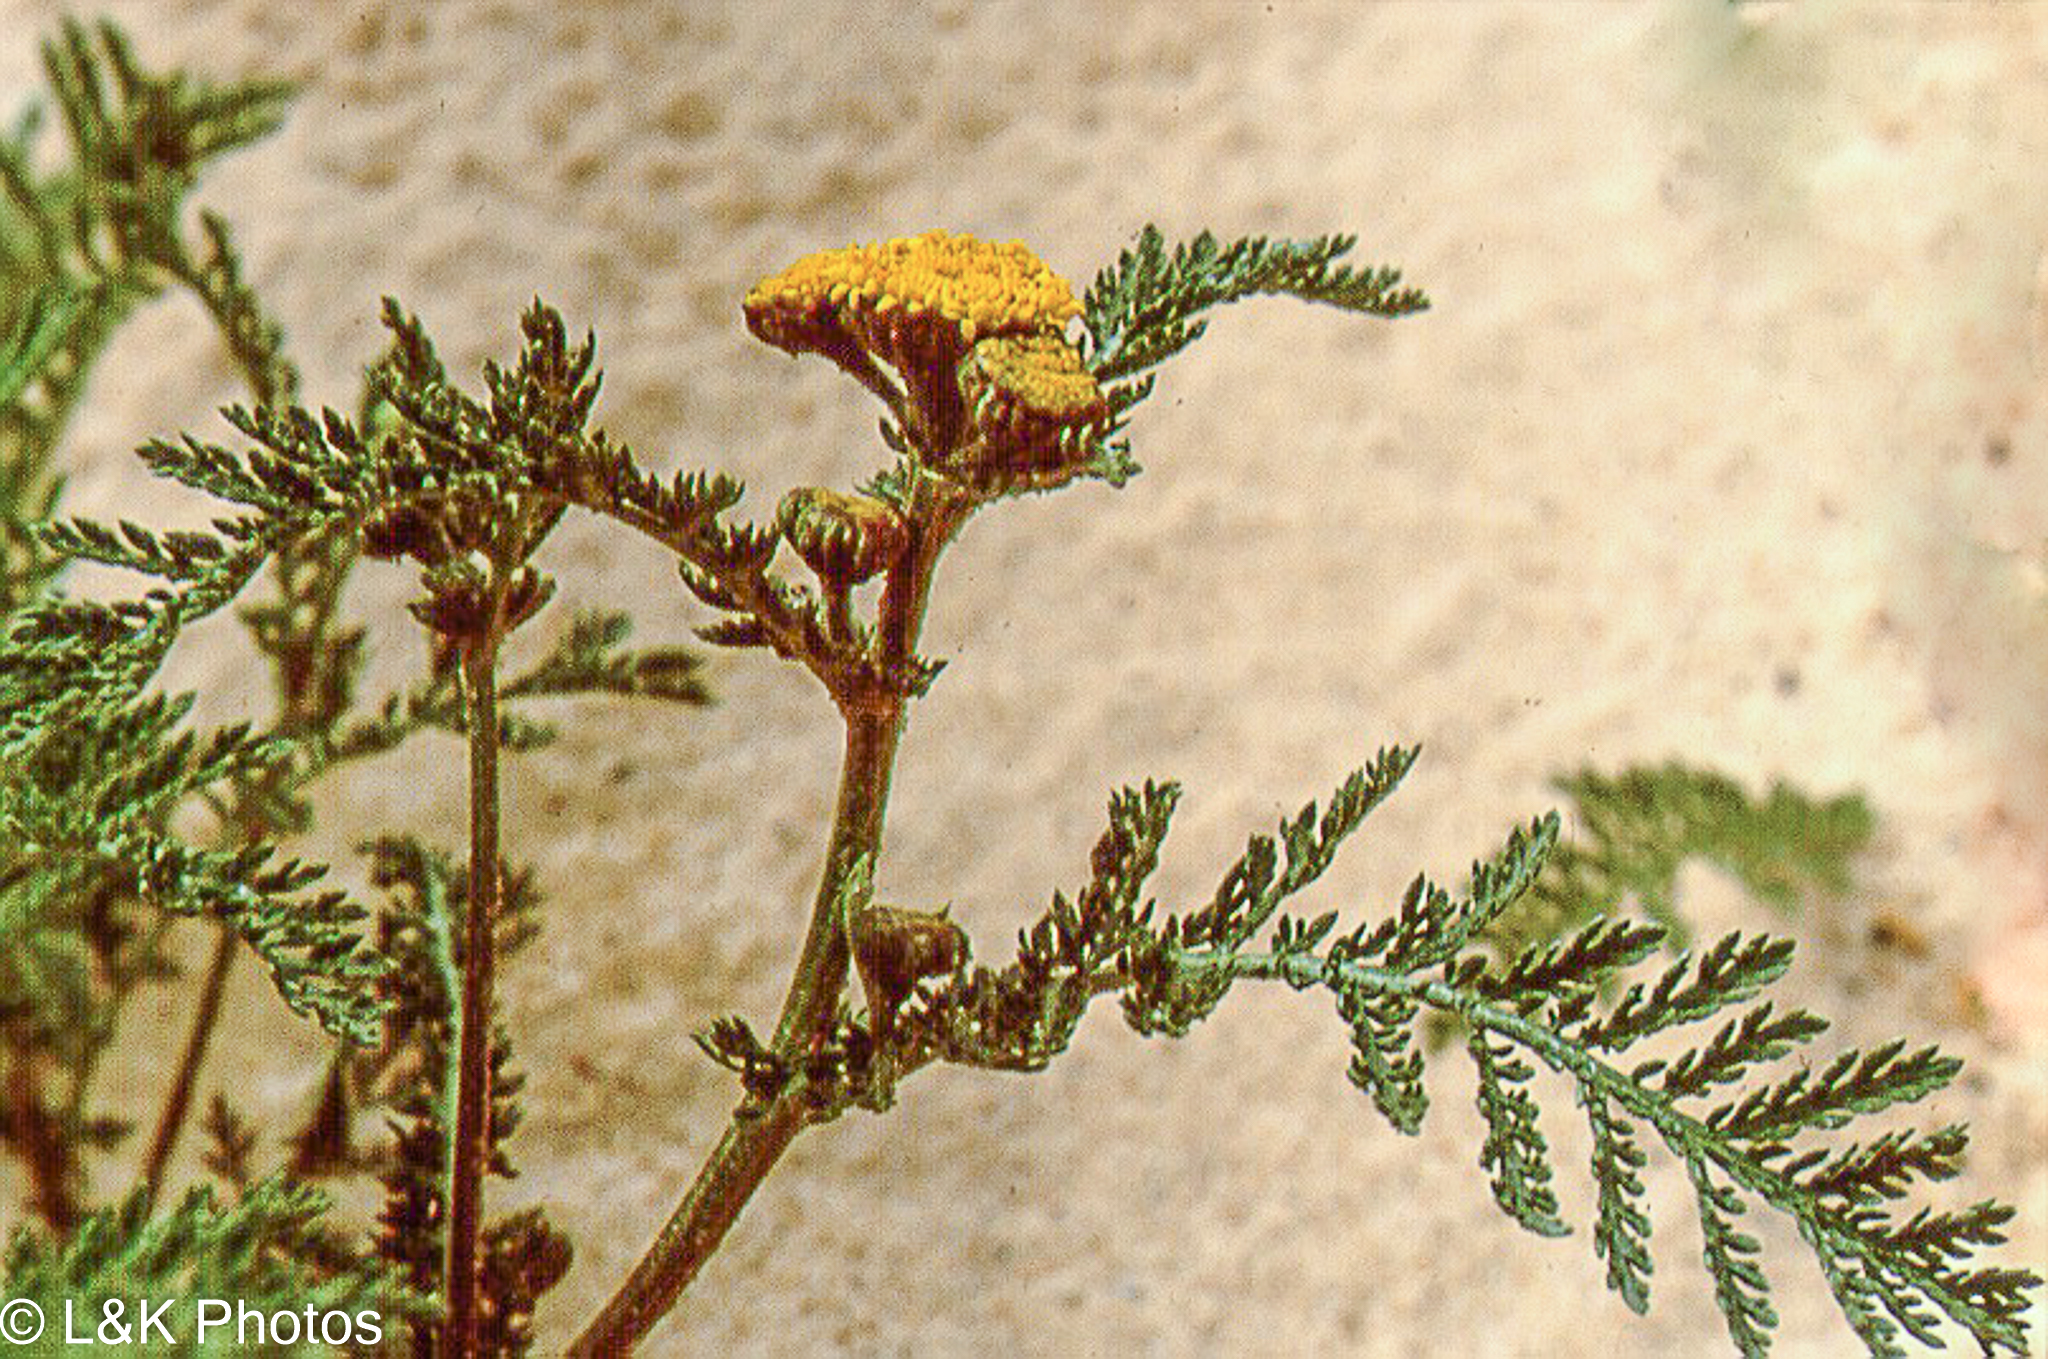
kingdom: Plantae
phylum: Tracheophyta
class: Magnoliopsida
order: Asterales
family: Asteraceae
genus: Tanacetum
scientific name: Tanacetum bipinnatum
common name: Dwarf tansy
